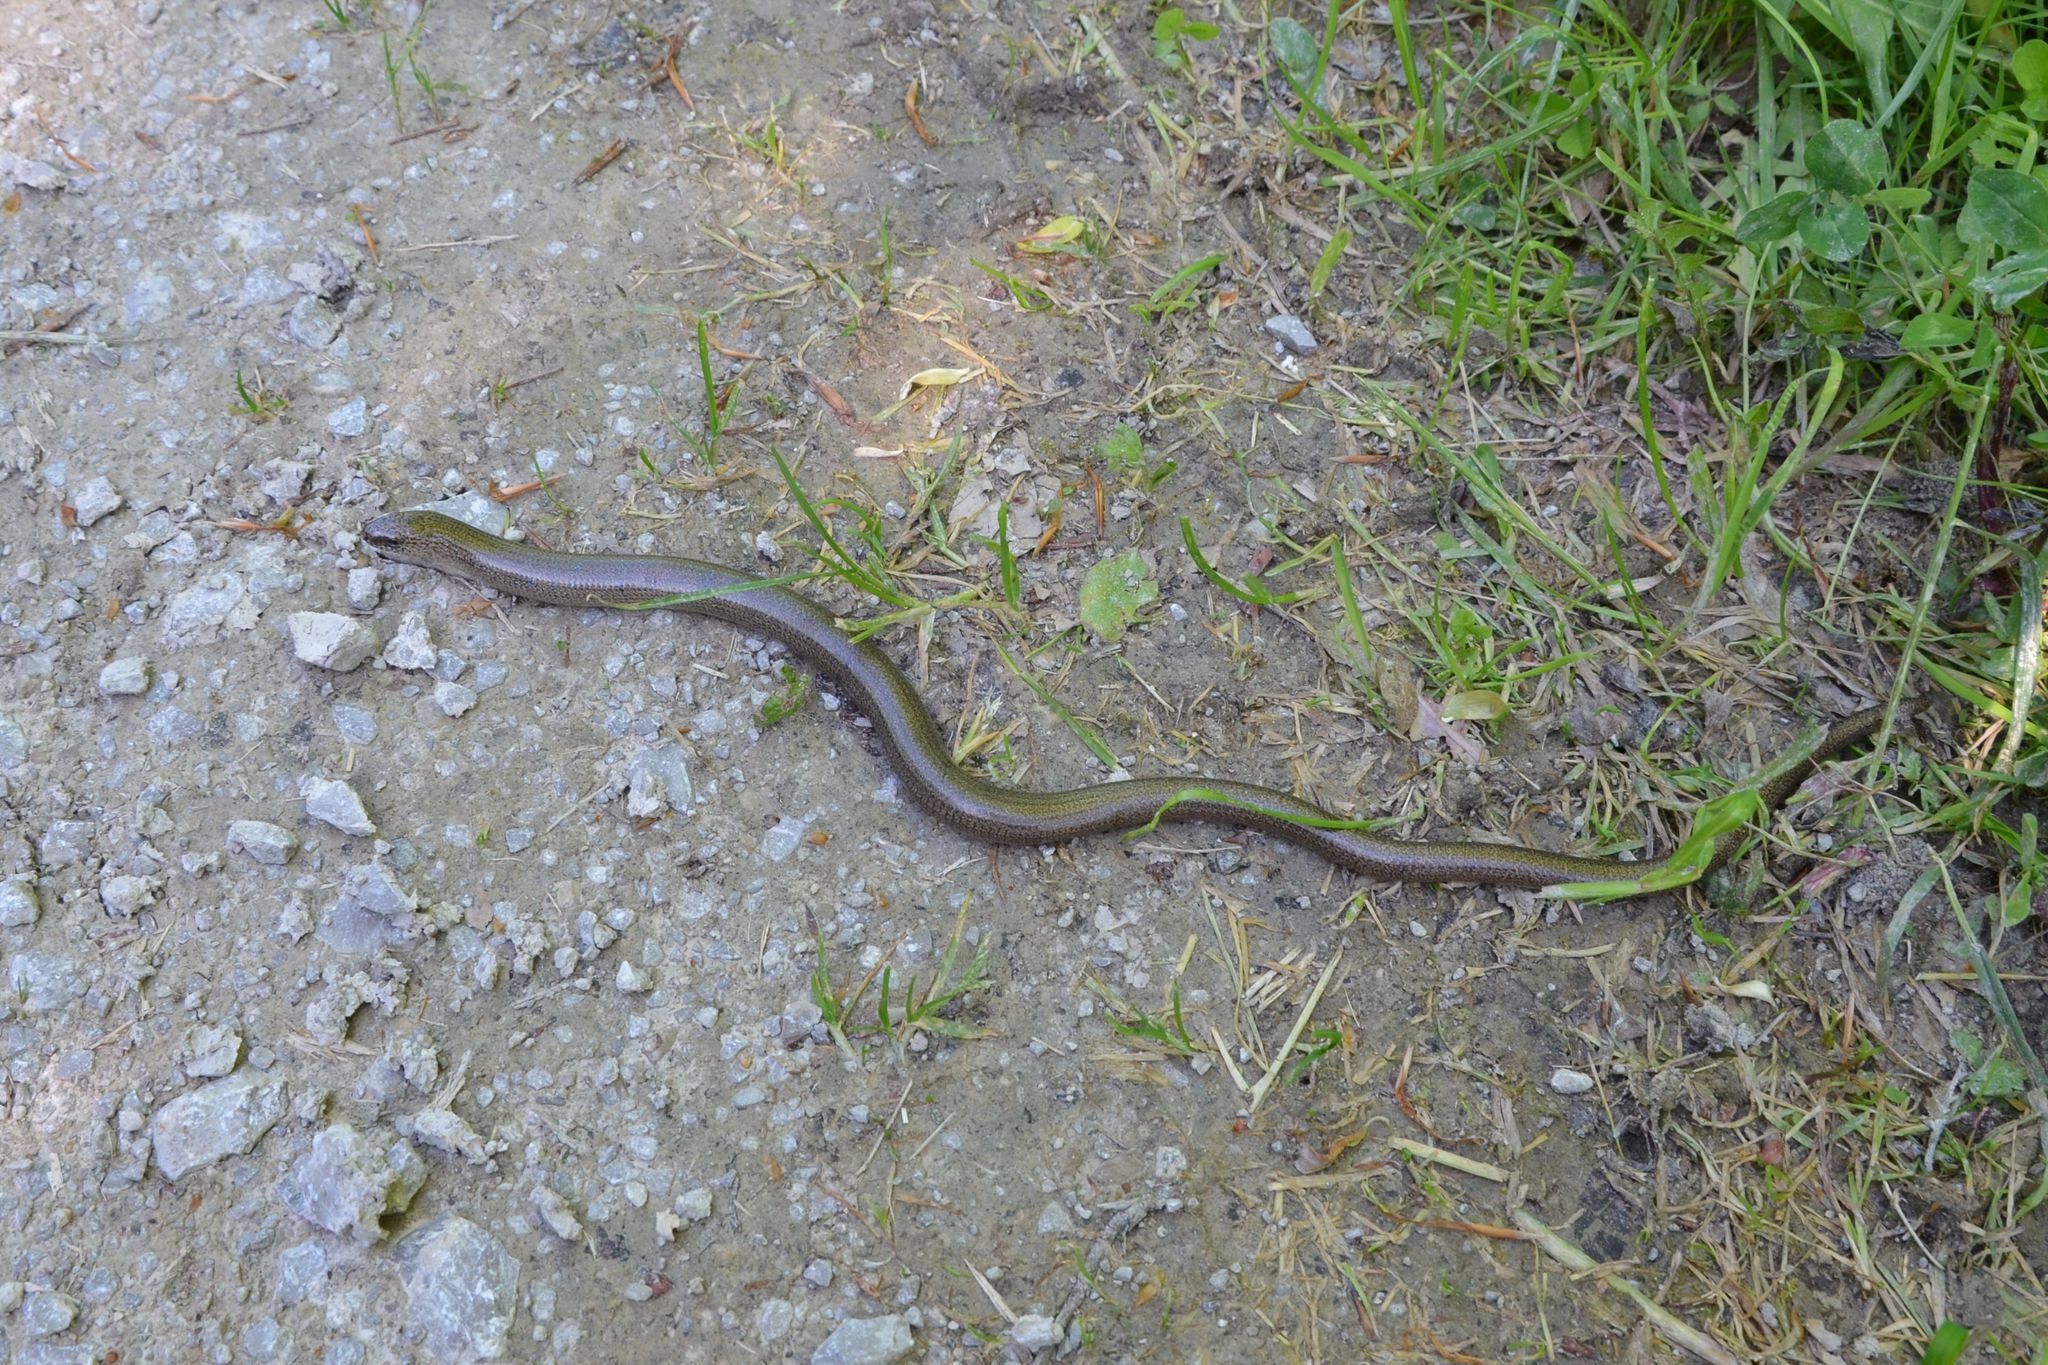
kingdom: Animalia
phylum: Chordata
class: Squamata
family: Anguidae
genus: Anguis
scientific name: Anguis fragilis
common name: Slow worm
